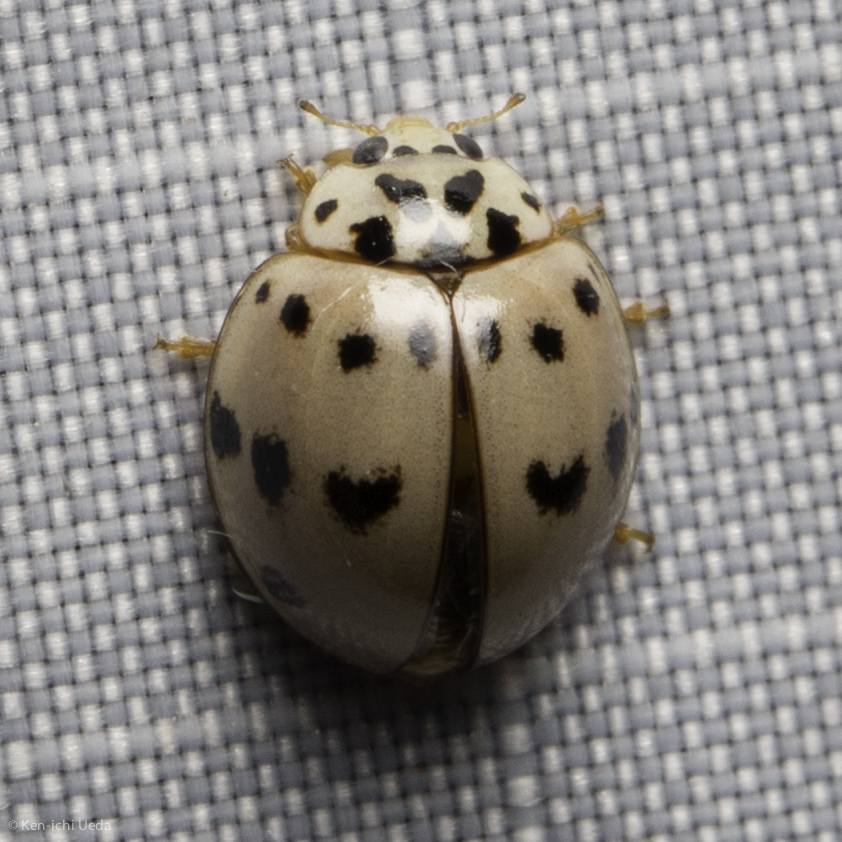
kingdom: Animalia
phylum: Arthropoda
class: Insecta
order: Coleoptera
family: Coccinellidae
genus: Olla
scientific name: Olla v-nigrum
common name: Ashy gray lady beetle
